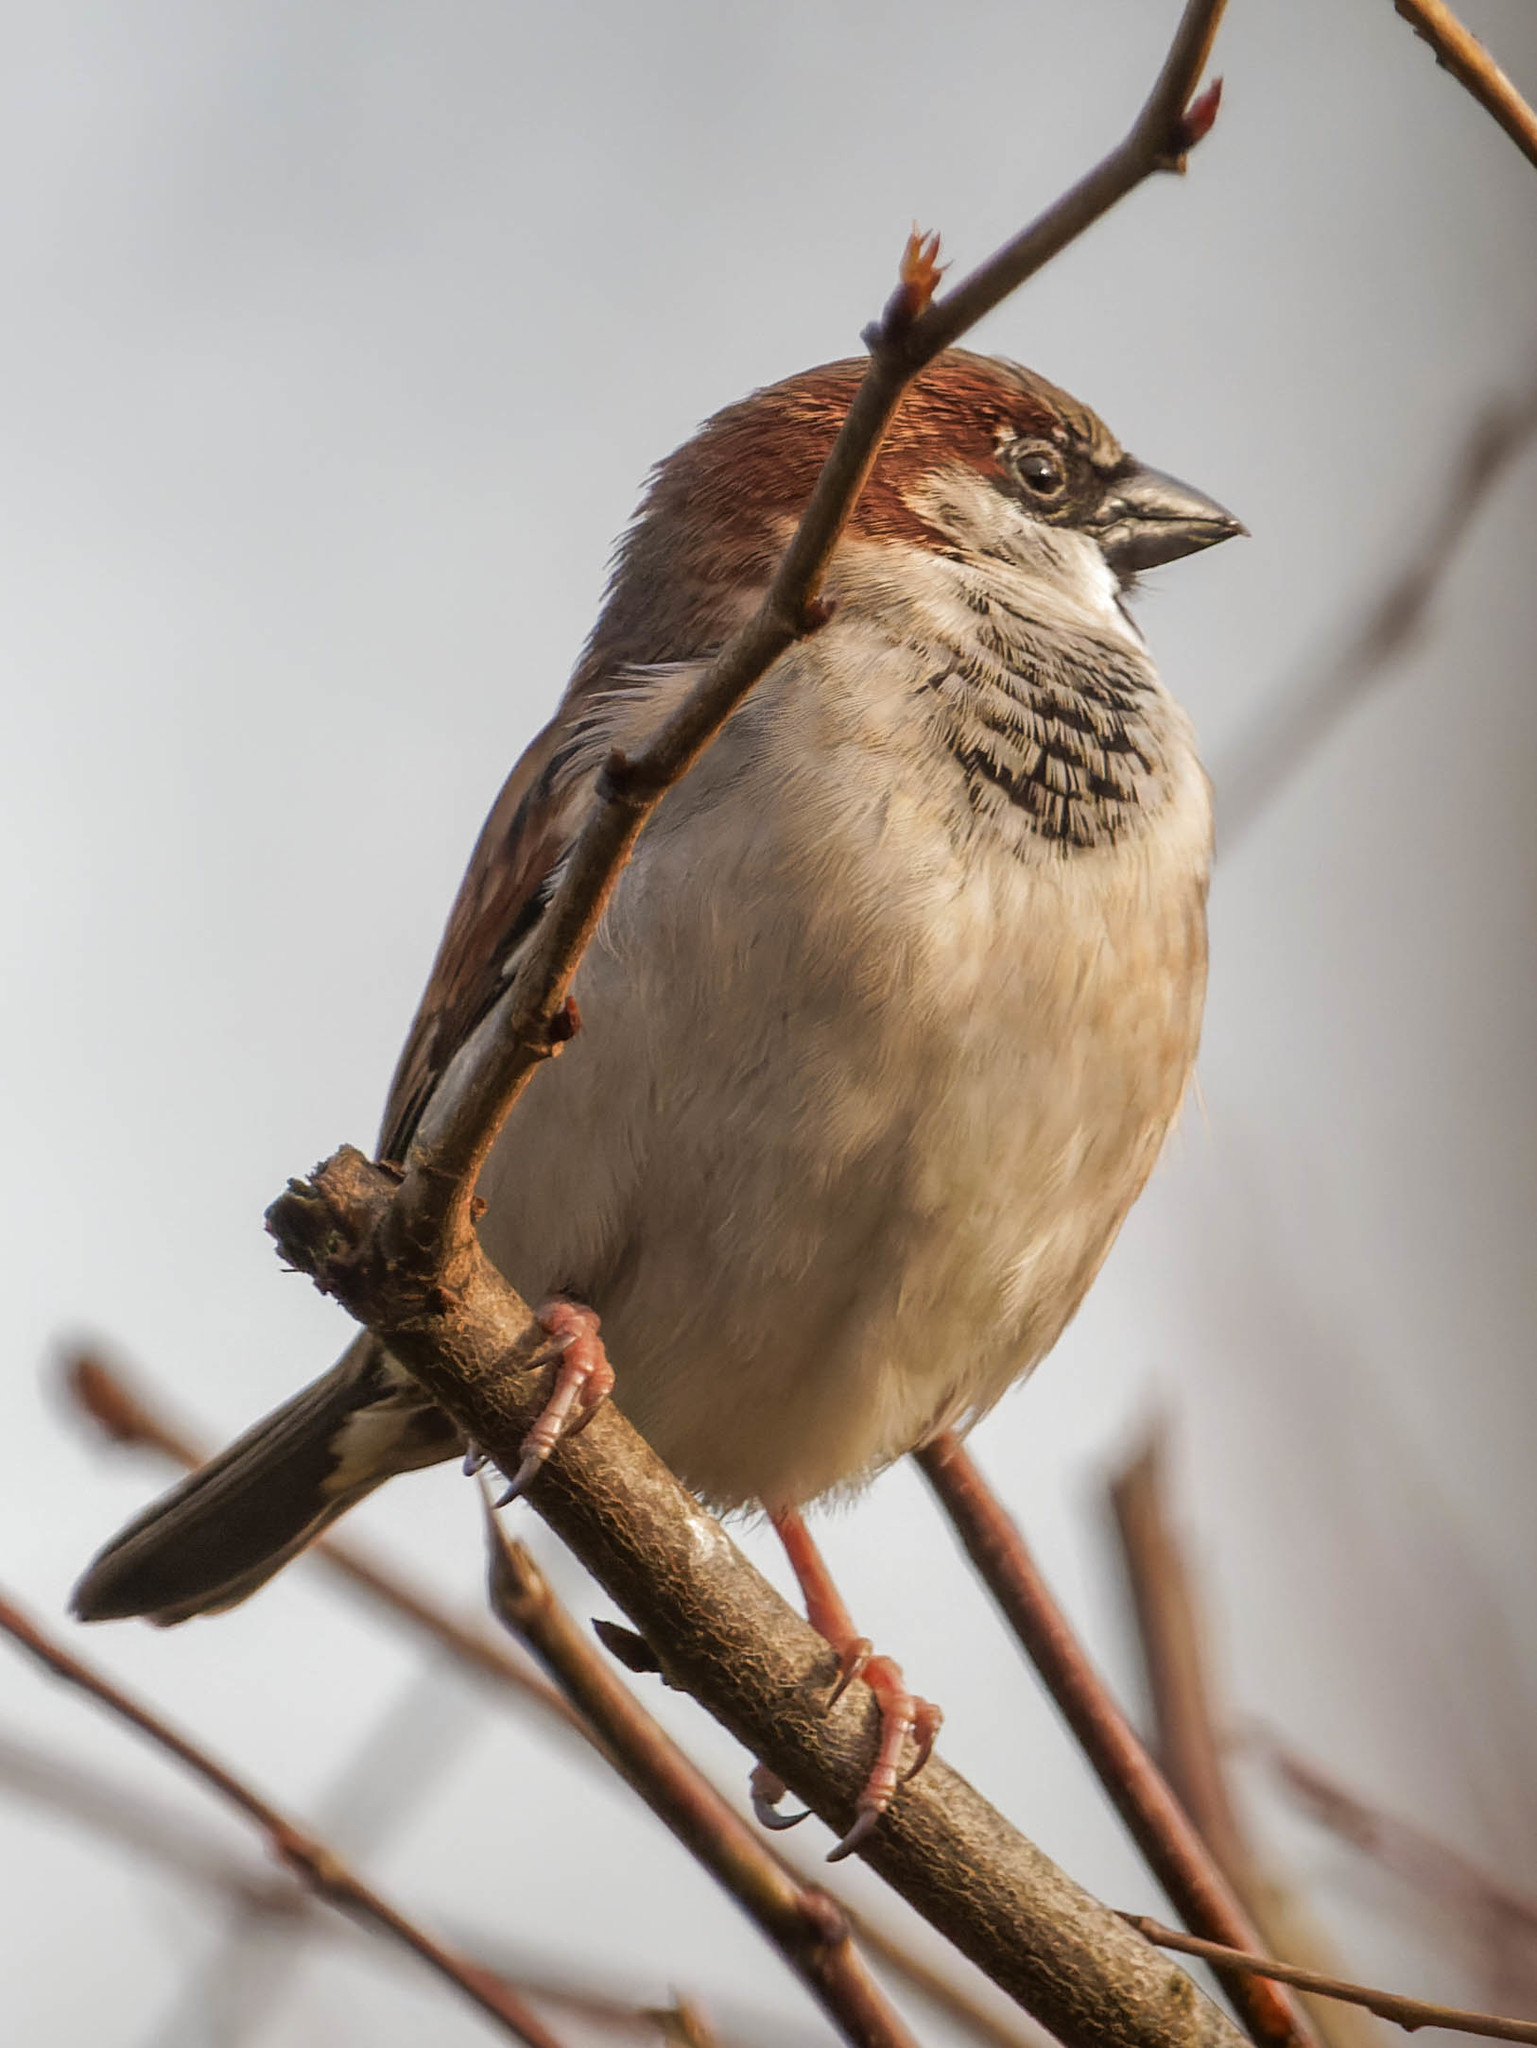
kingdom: Animalia
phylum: Chordata
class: Aves
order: Passeriformes
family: Passeridae
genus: Passer
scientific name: Passer domesticus
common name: House sparrow
